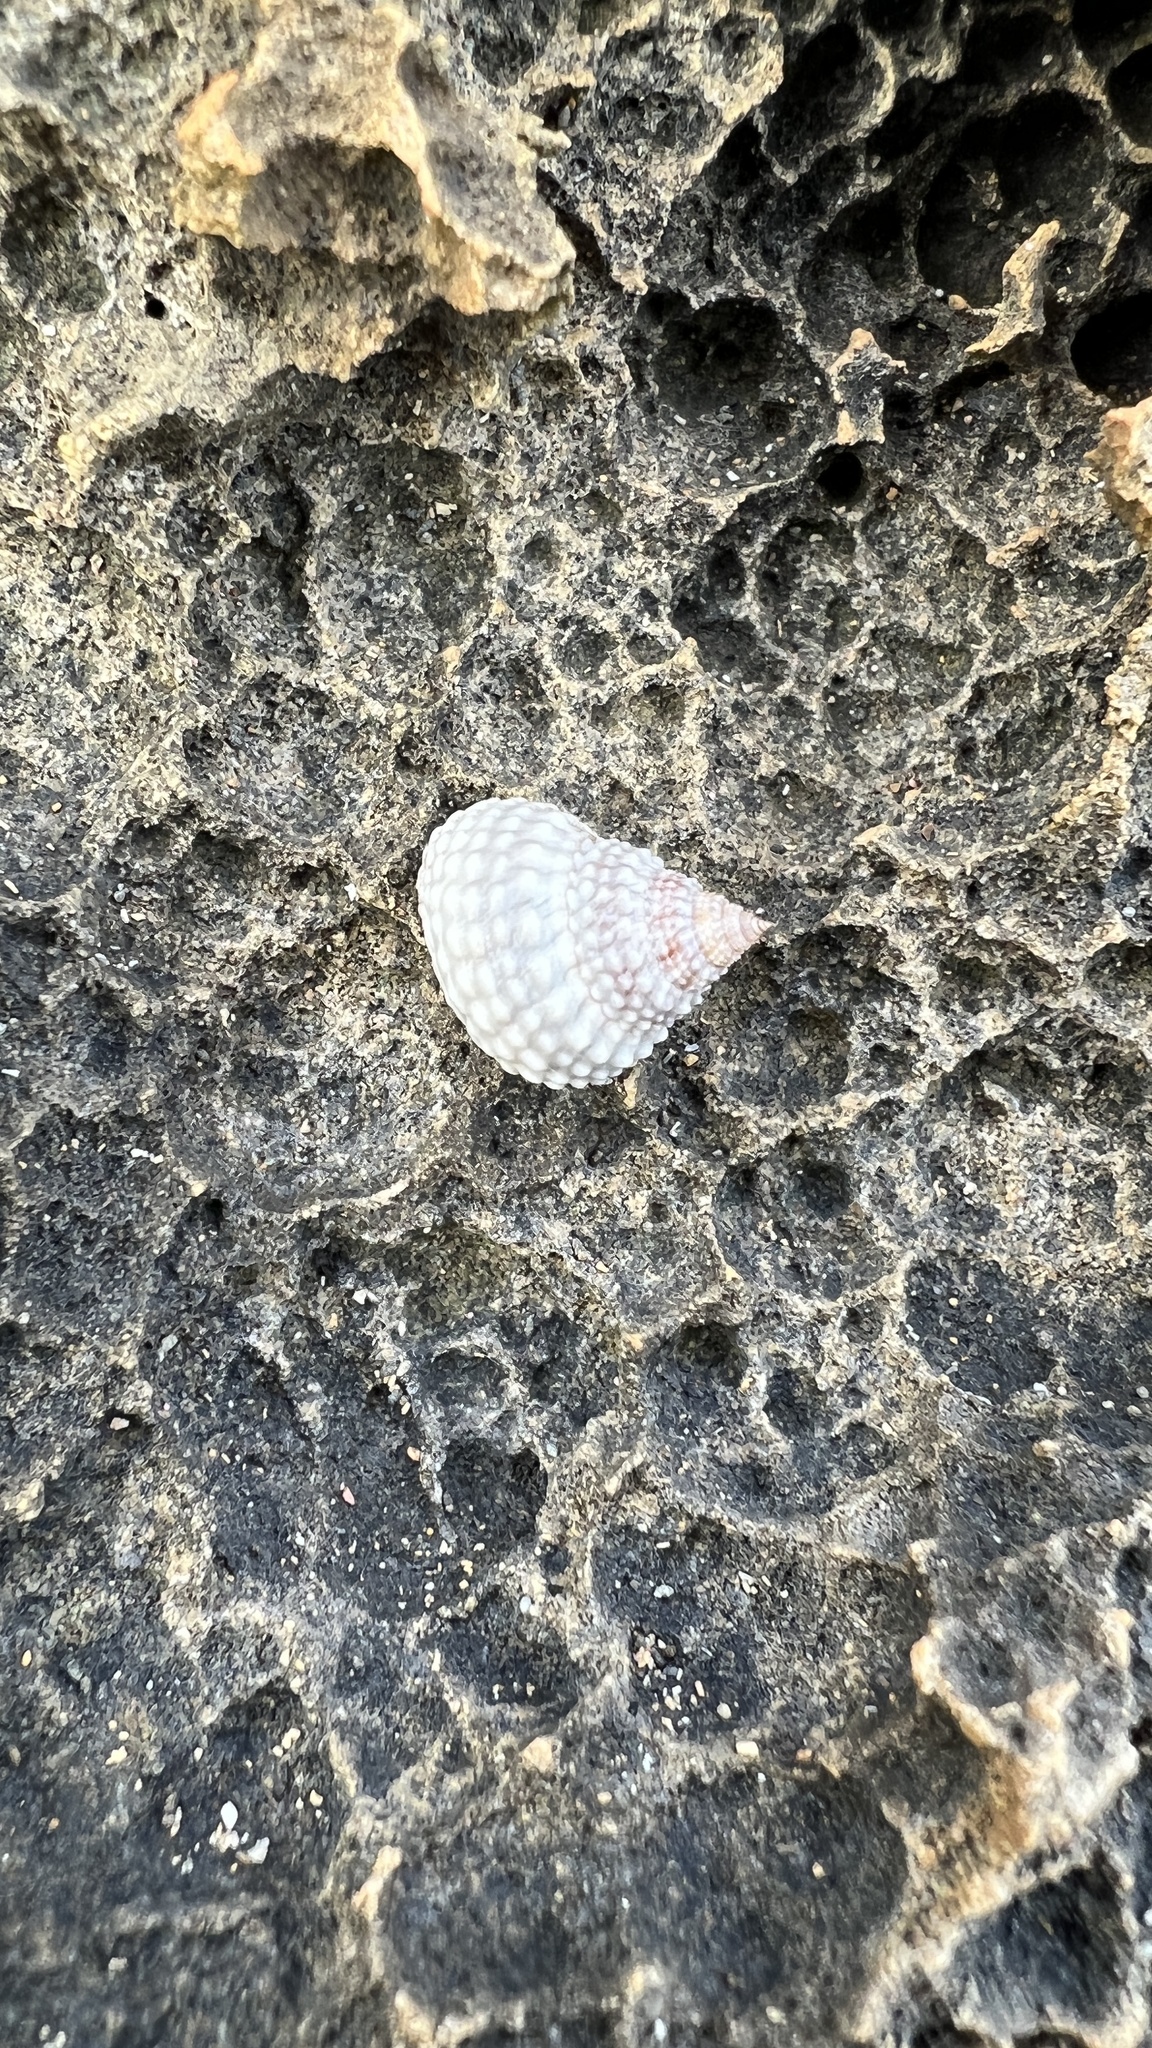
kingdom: Animalia
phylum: Mollusca
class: Gastropoda
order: Littorinimorpha
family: Littorinidae
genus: Cenchritis
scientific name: Cenchritis muricatus
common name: Beaded periwinkle
